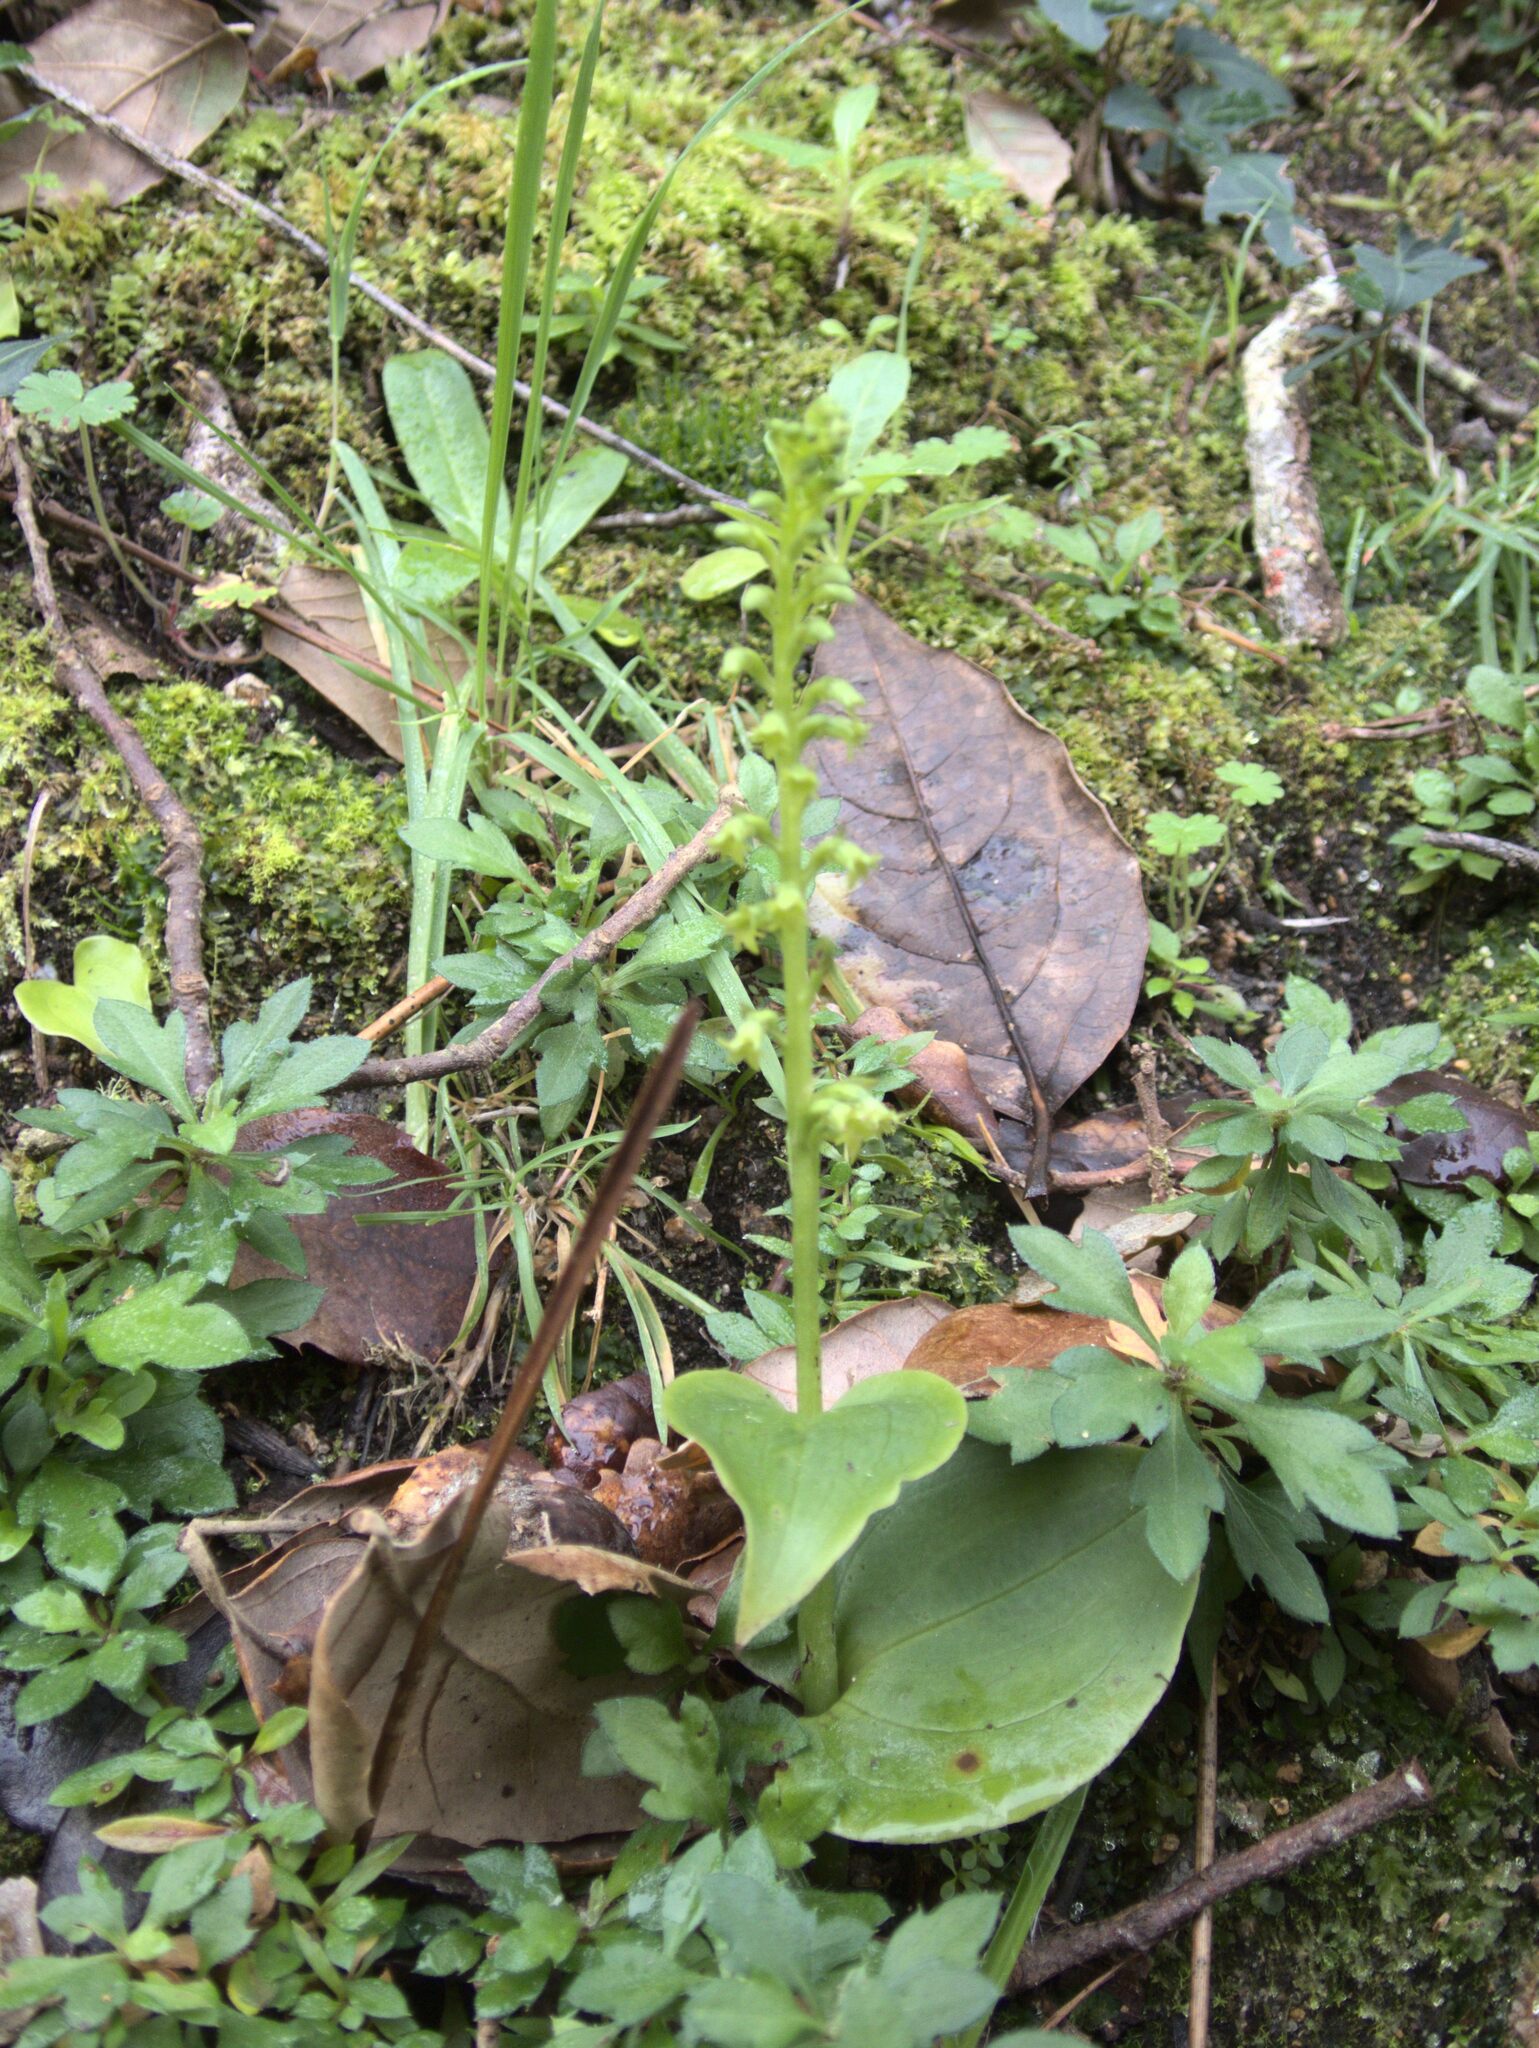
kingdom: Plantae
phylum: Tracheophyta
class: Liliopsida
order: Asparagales
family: Orchidaceae
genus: Gennaria
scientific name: Gennaria diphylla
